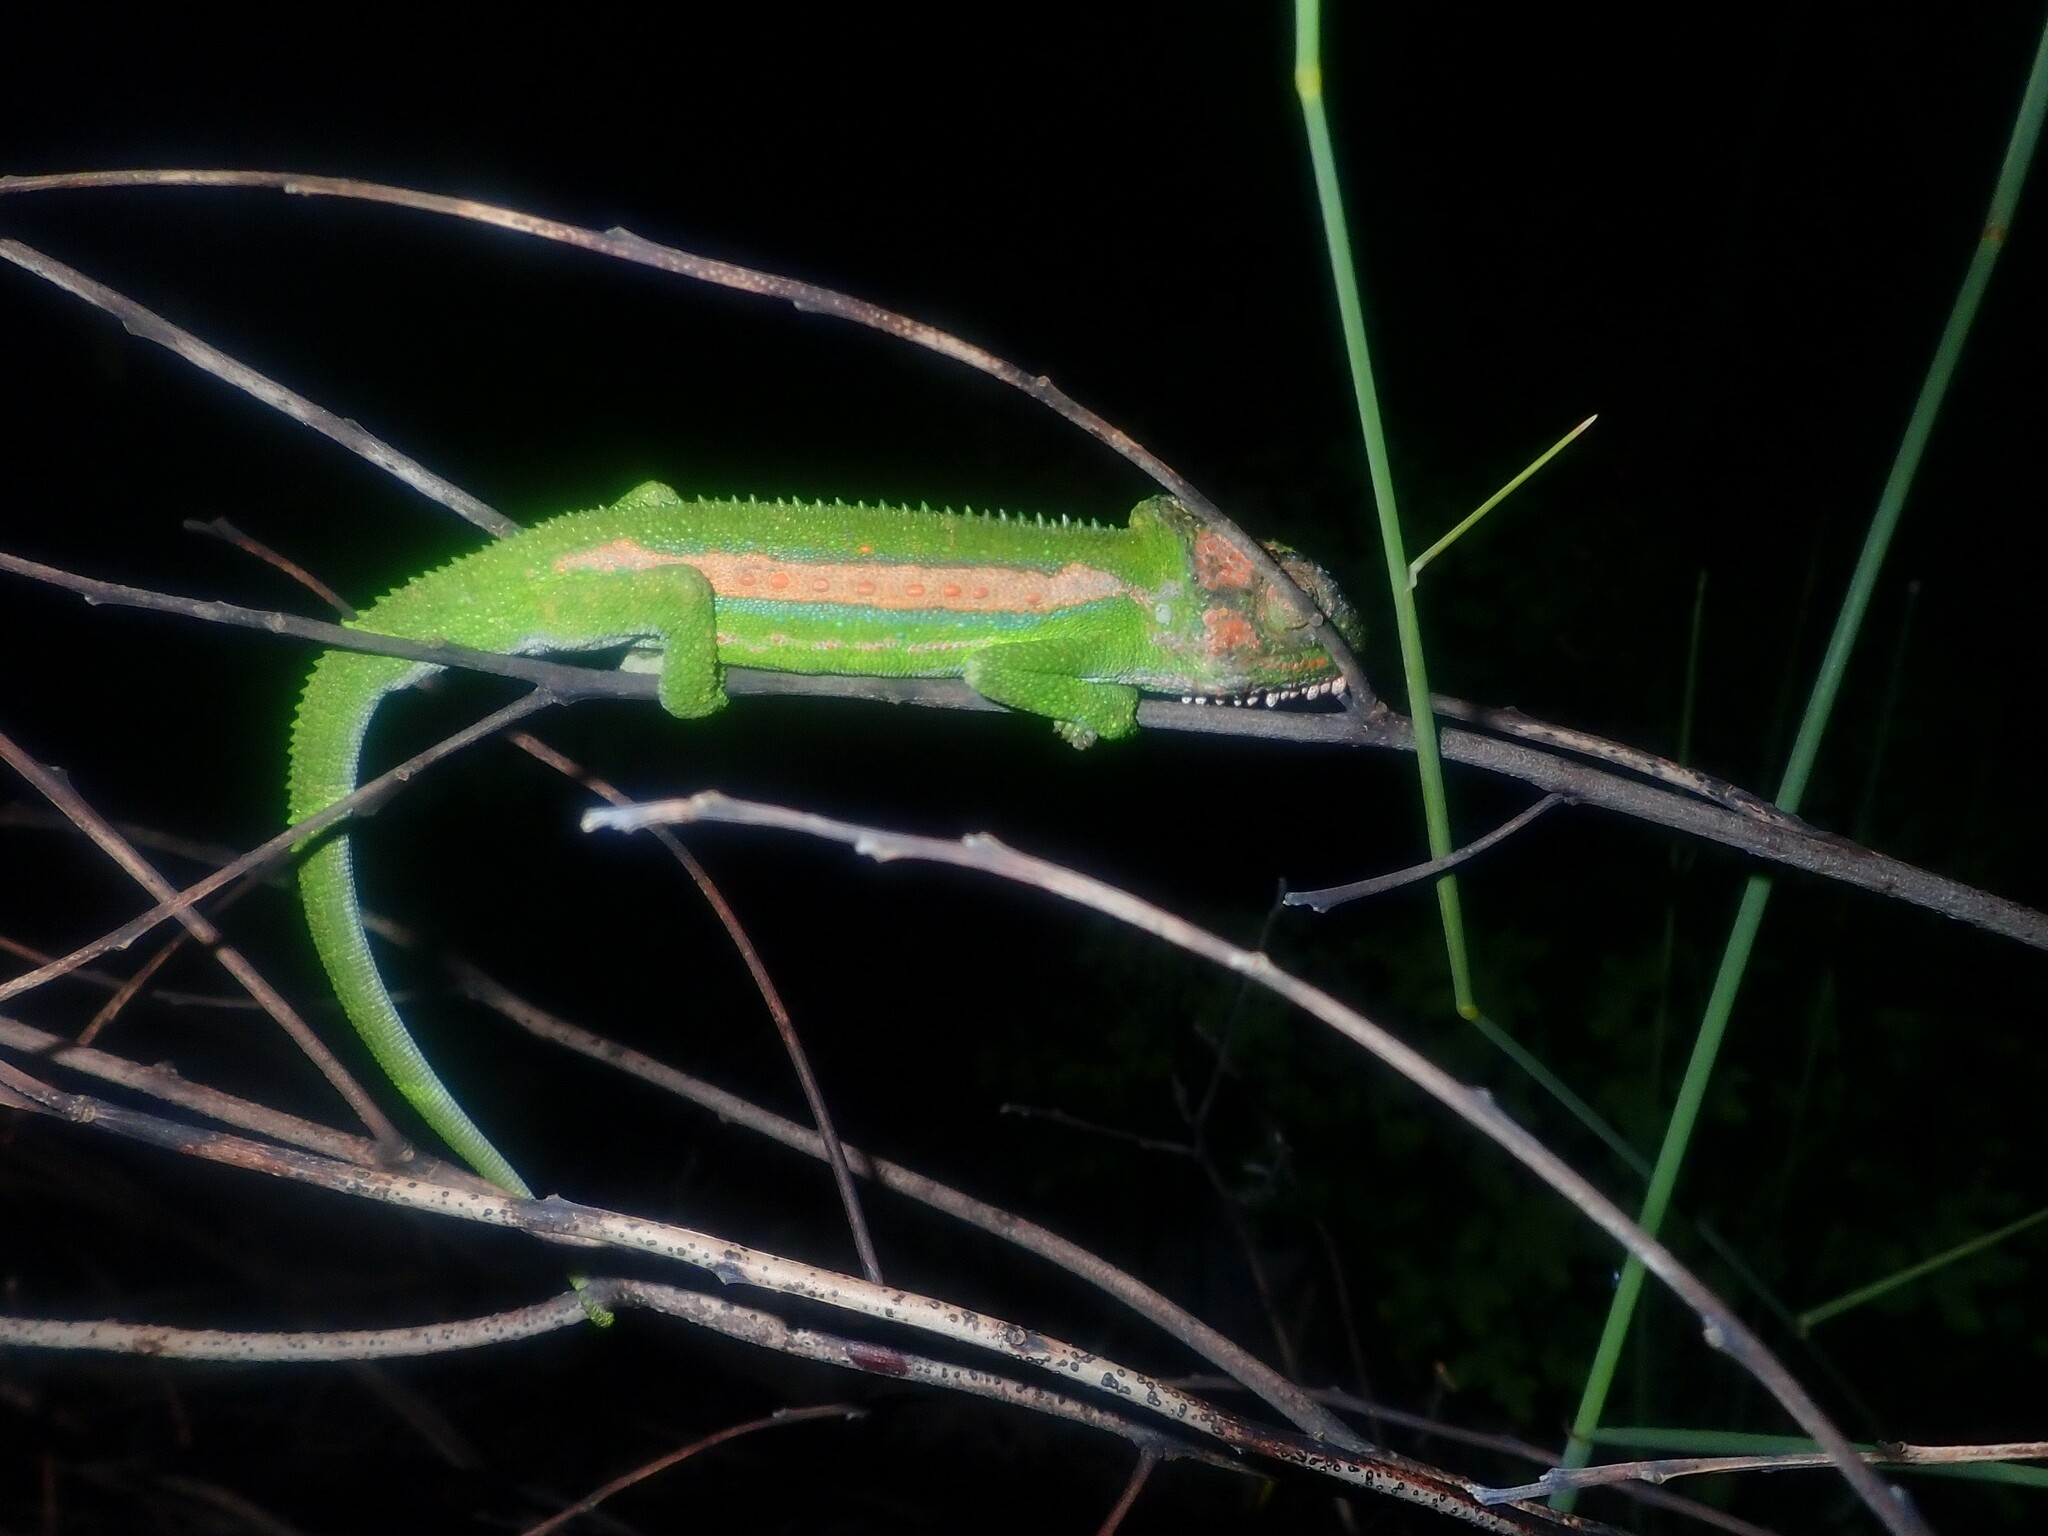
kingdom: Animalia
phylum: Chordata
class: Squamata
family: Chamaeleonidae
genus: Bradypodion
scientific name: Bradypodion pumilum
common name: Cape dwarf chameleon
